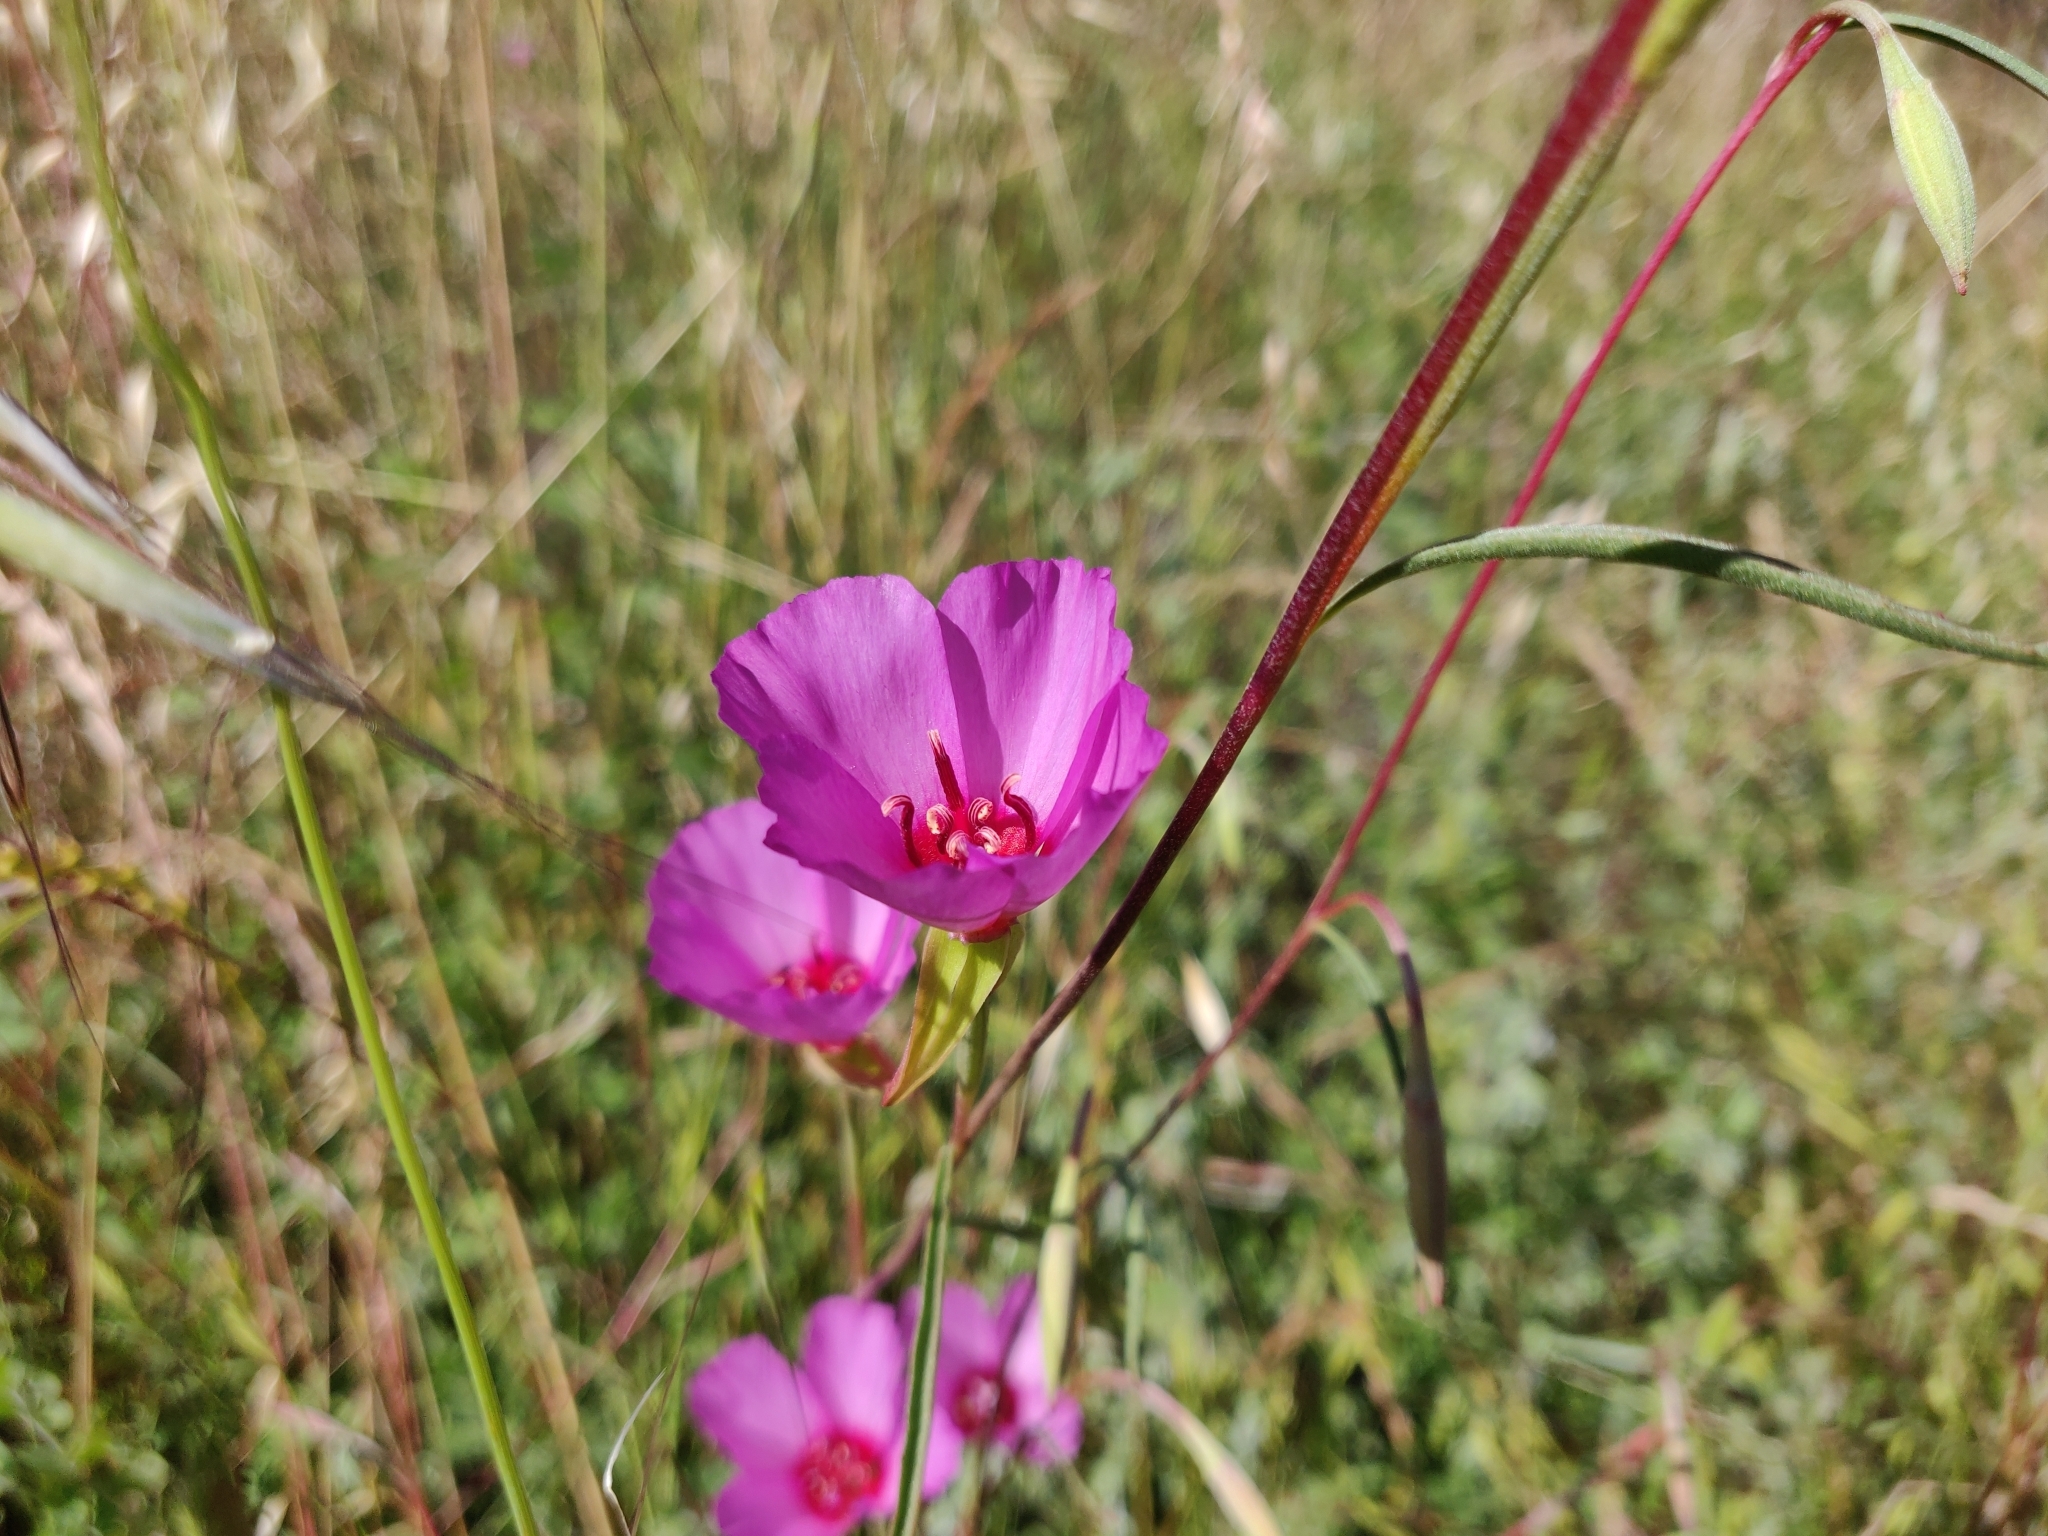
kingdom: Plantae
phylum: Tracheophyta
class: Magnoliopsida
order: Myrtales
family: Onagraceae
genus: Clarkia
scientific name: Clarkia rubicunda
